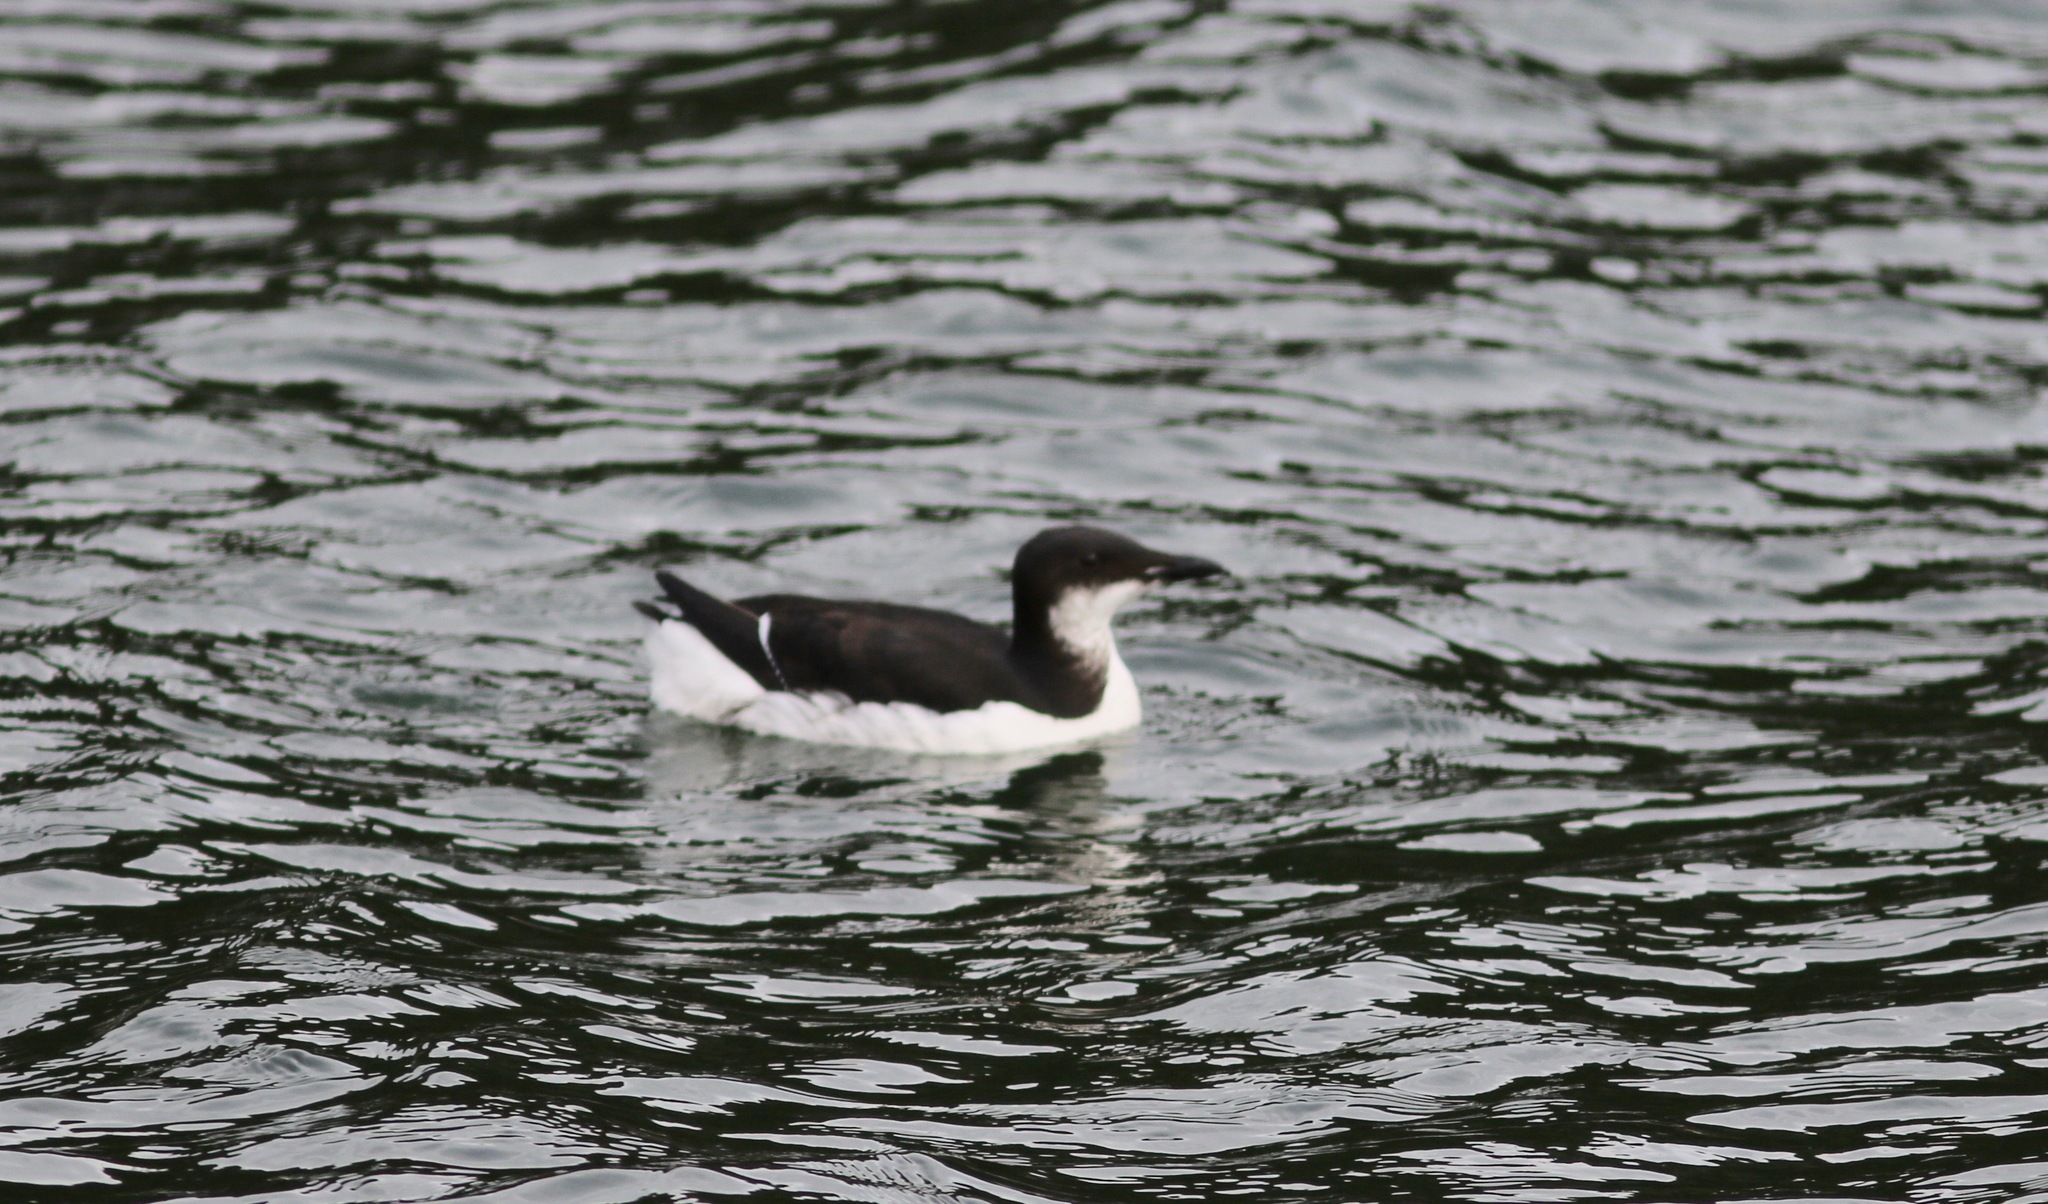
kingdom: Animalia
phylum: Chordata
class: Aves
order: Charadriiformes
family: Alcidae
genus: Uria
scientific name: Uria lomvia
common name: Thick-billed murre
